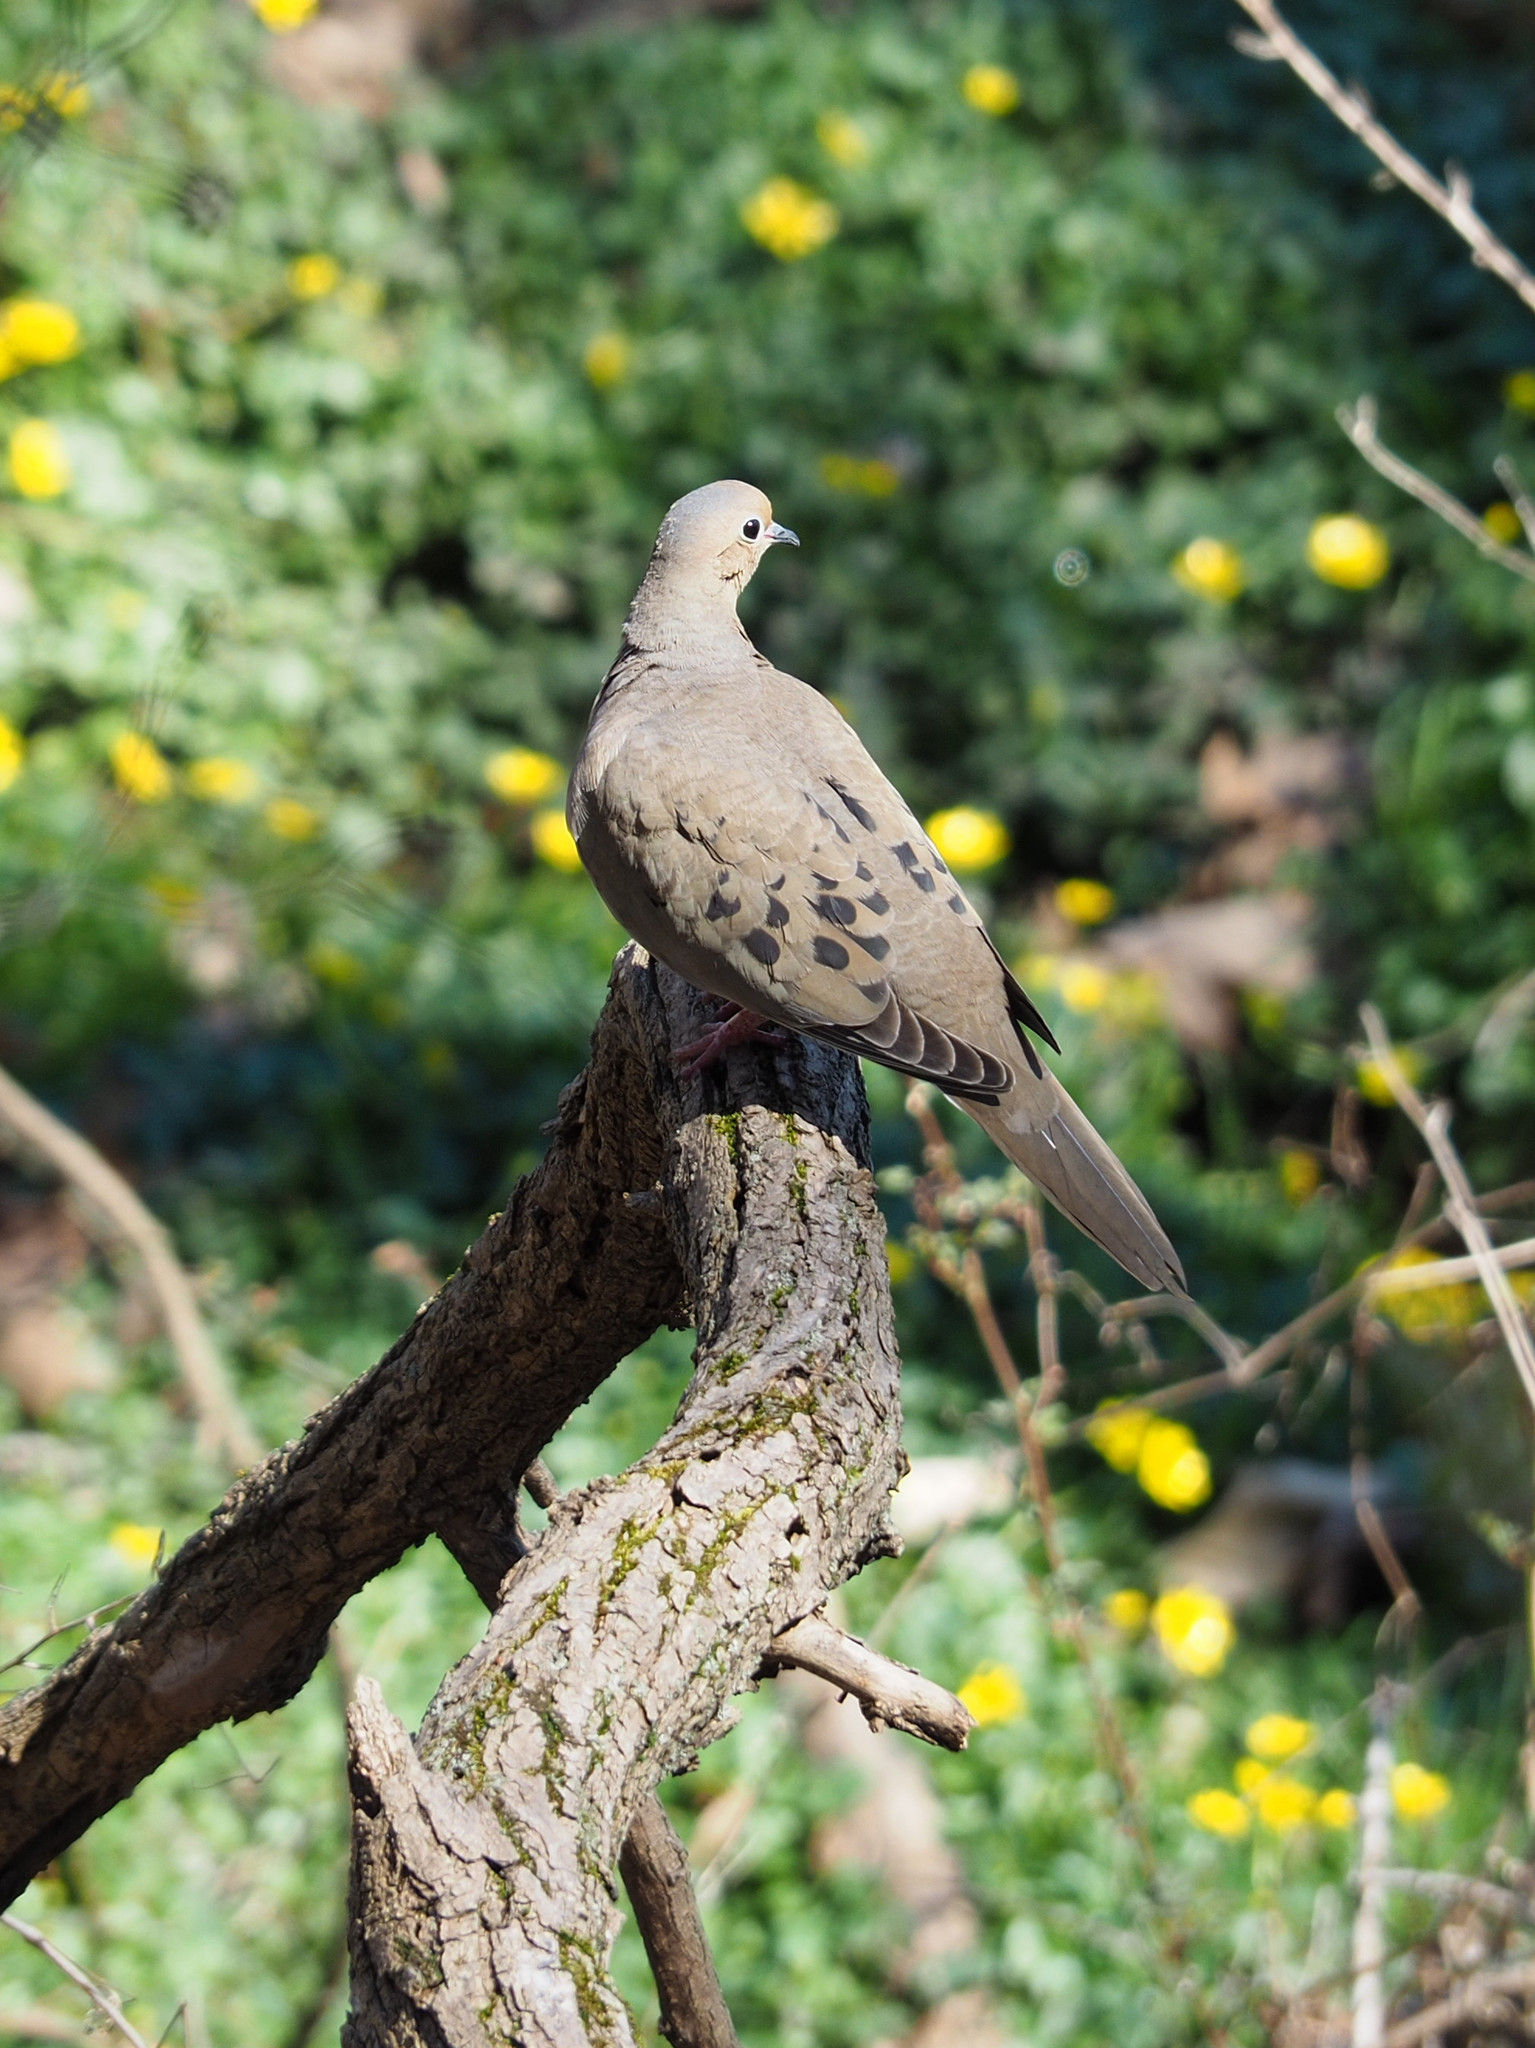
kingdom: Animalia
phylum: Chordata
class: Aves
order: Columbiformes
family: Columbidae
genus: Zenaida
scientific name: Zenaida macroura
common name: Mourning dove
